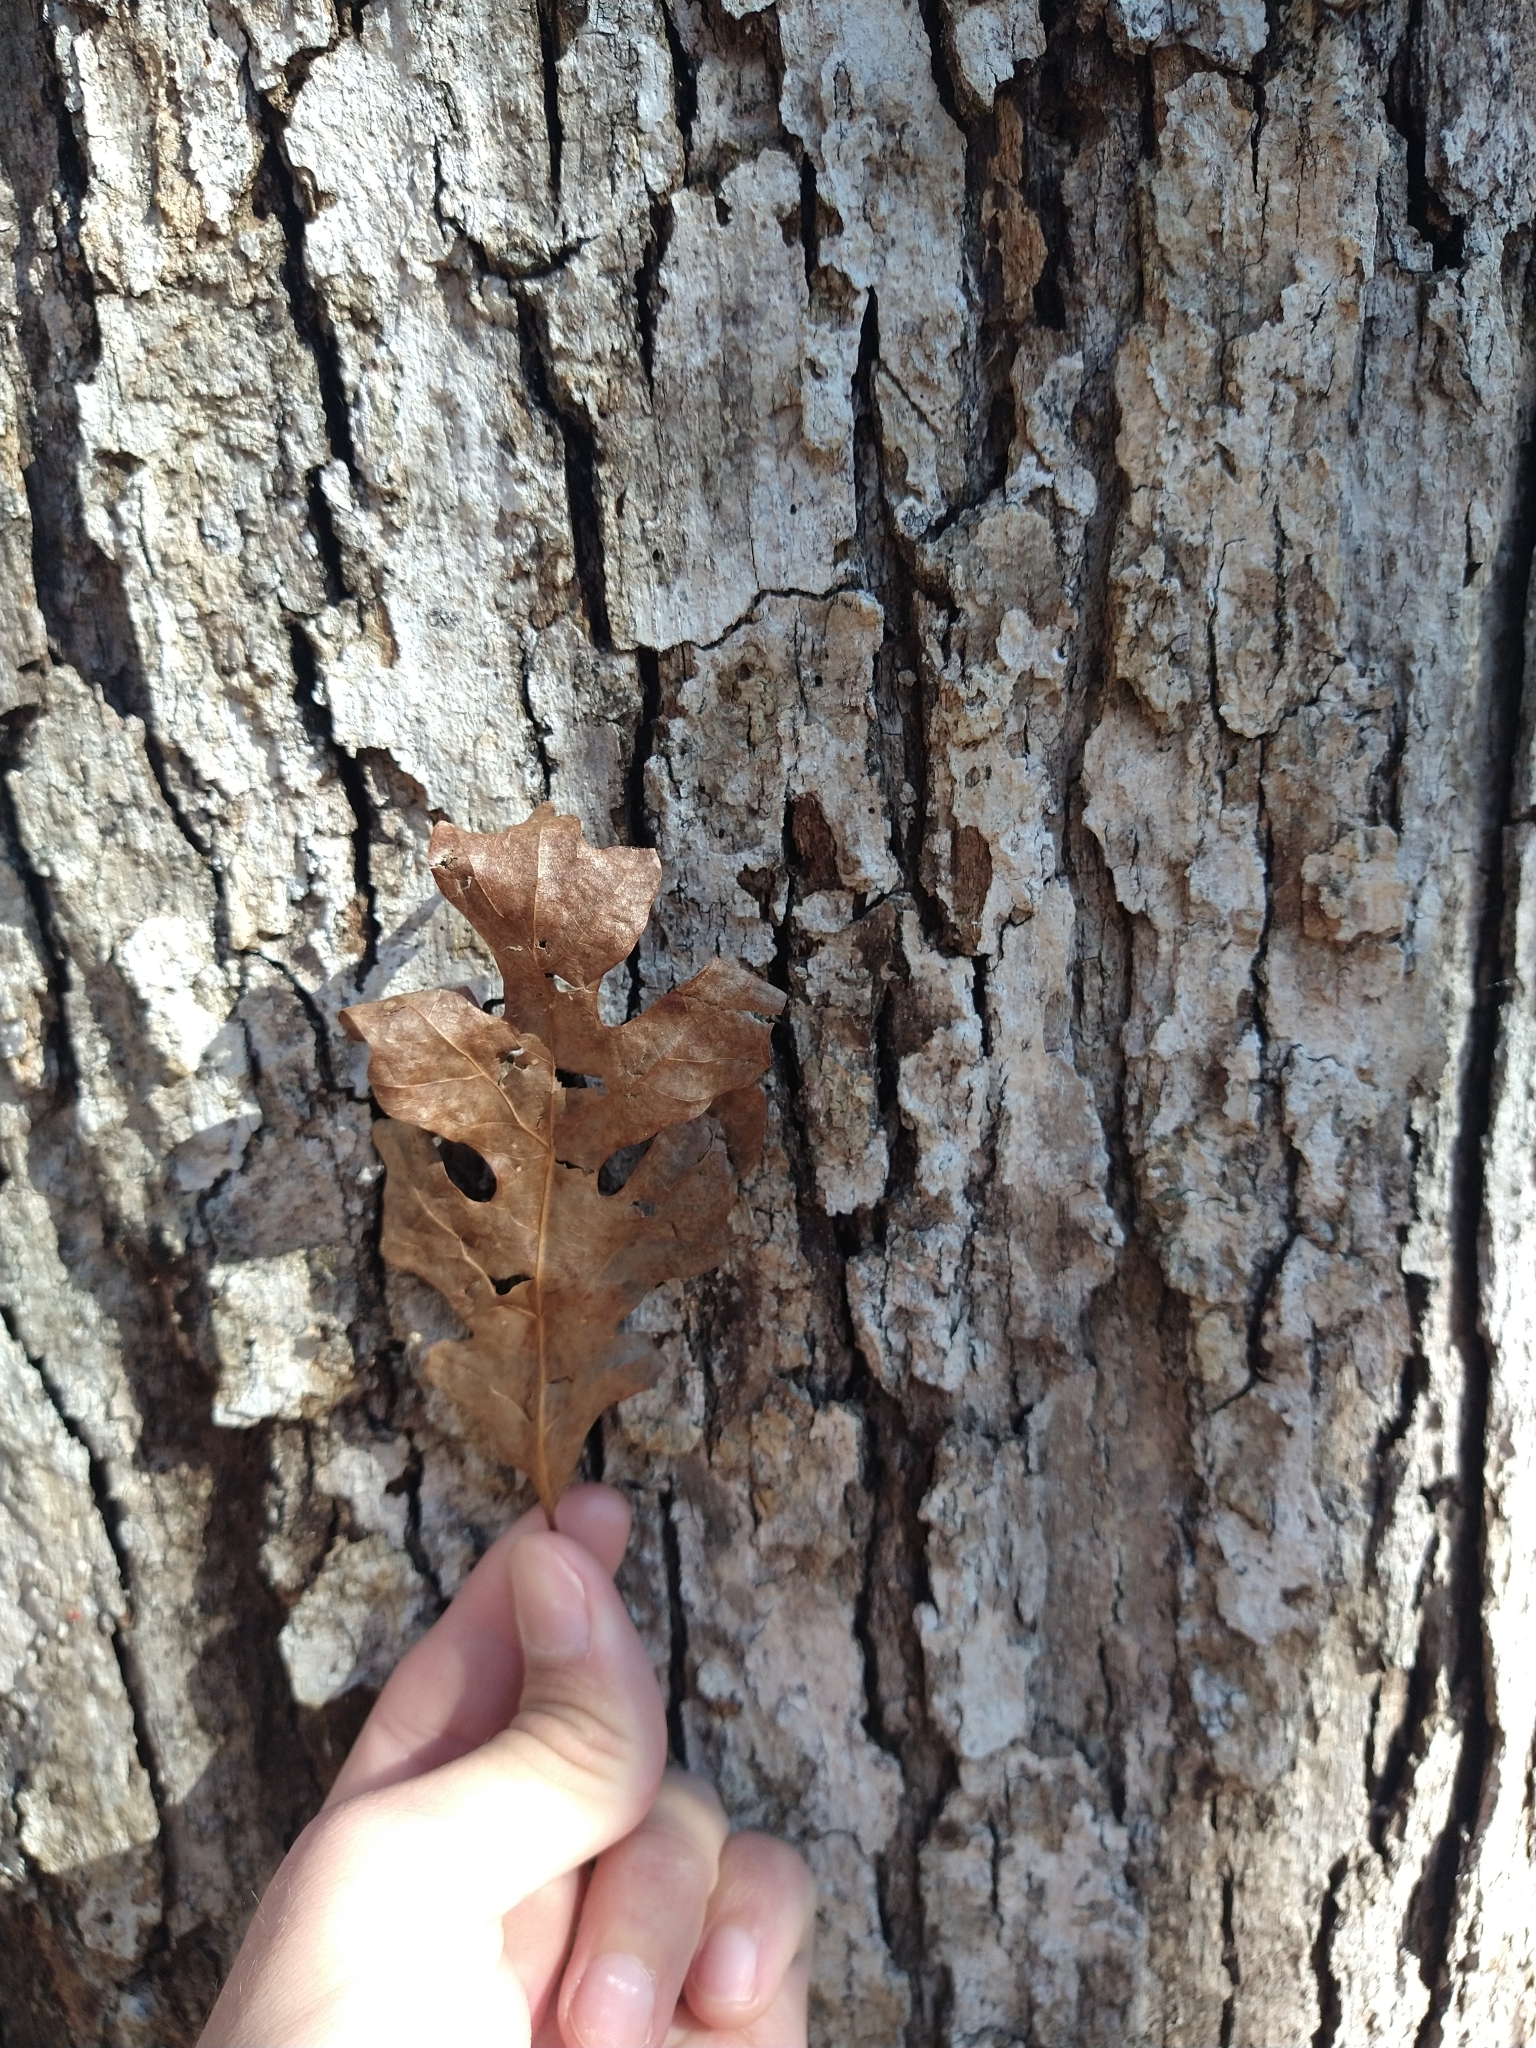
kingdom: Plantae
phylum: Tracheophyta
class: Magnoliopsida
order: Fagales
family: Fagaceae
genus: Quercus
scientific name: Quercus alba
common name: White oak
